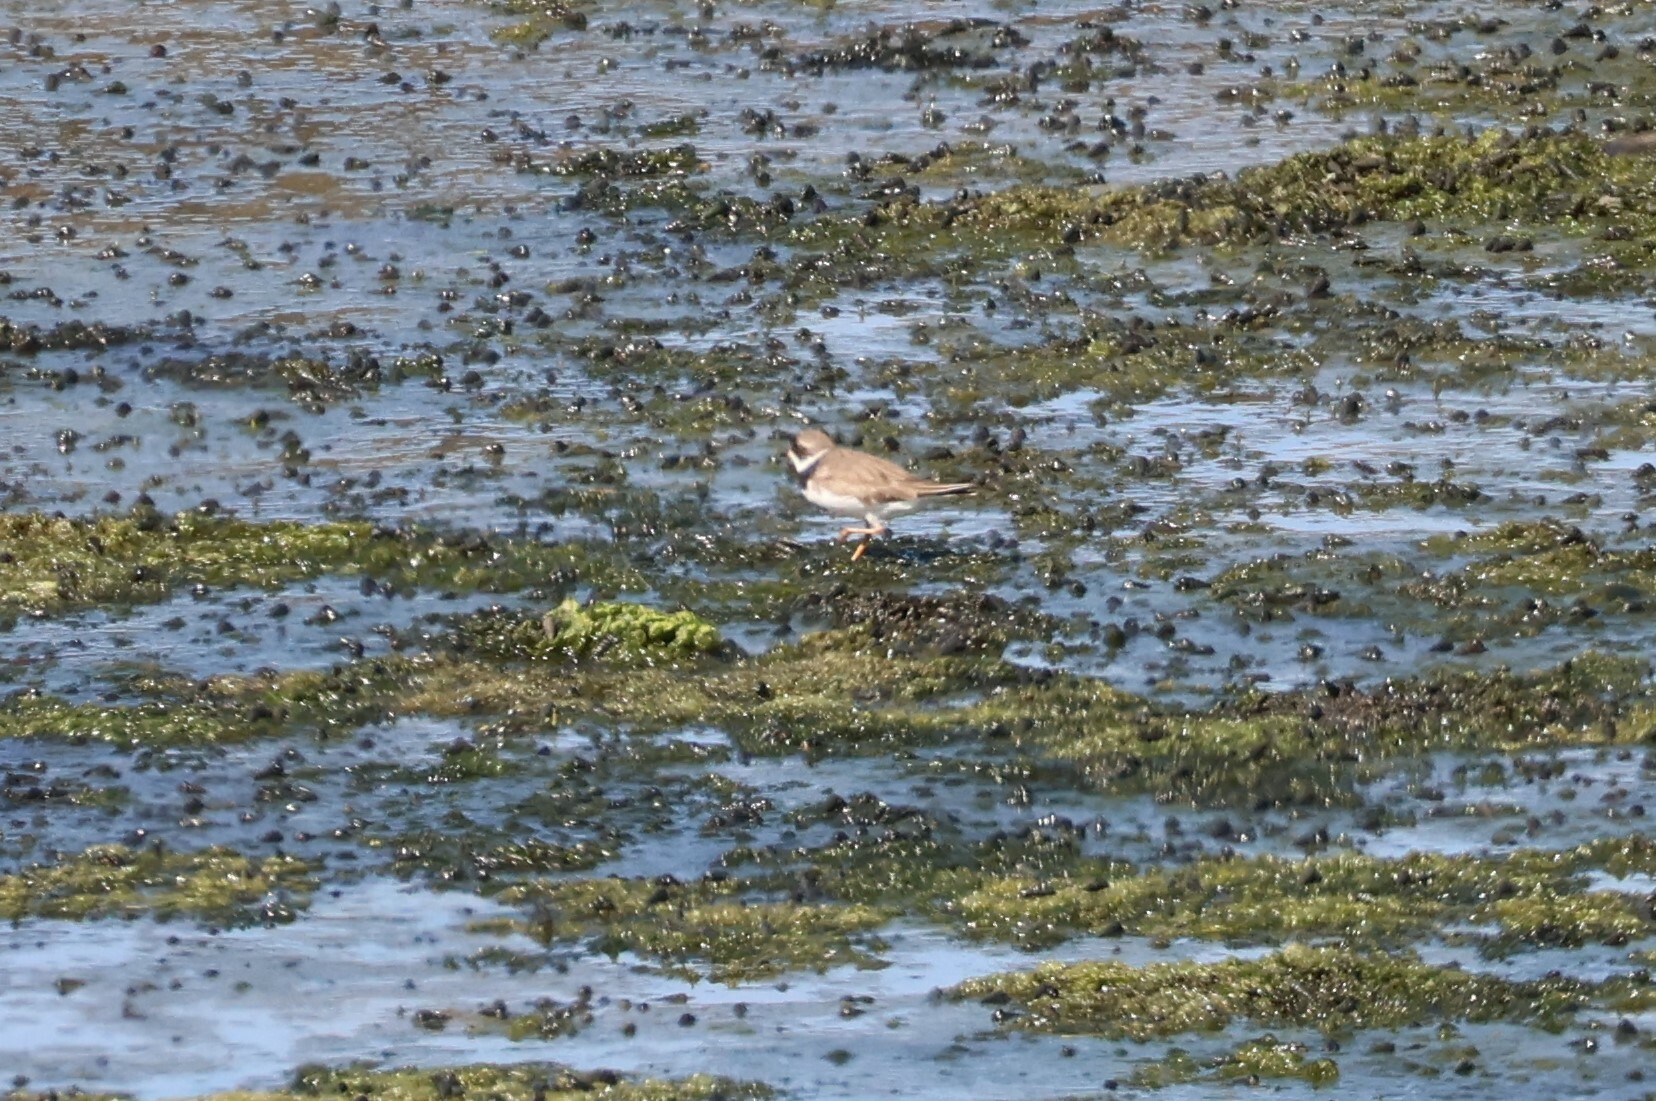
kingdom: Animalia
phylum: Chordata
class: Aves
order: Charadriiformes
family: Charadriidae
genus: Charadrius
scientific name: Charadrius semipalmatus
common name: Semipalmated plover
